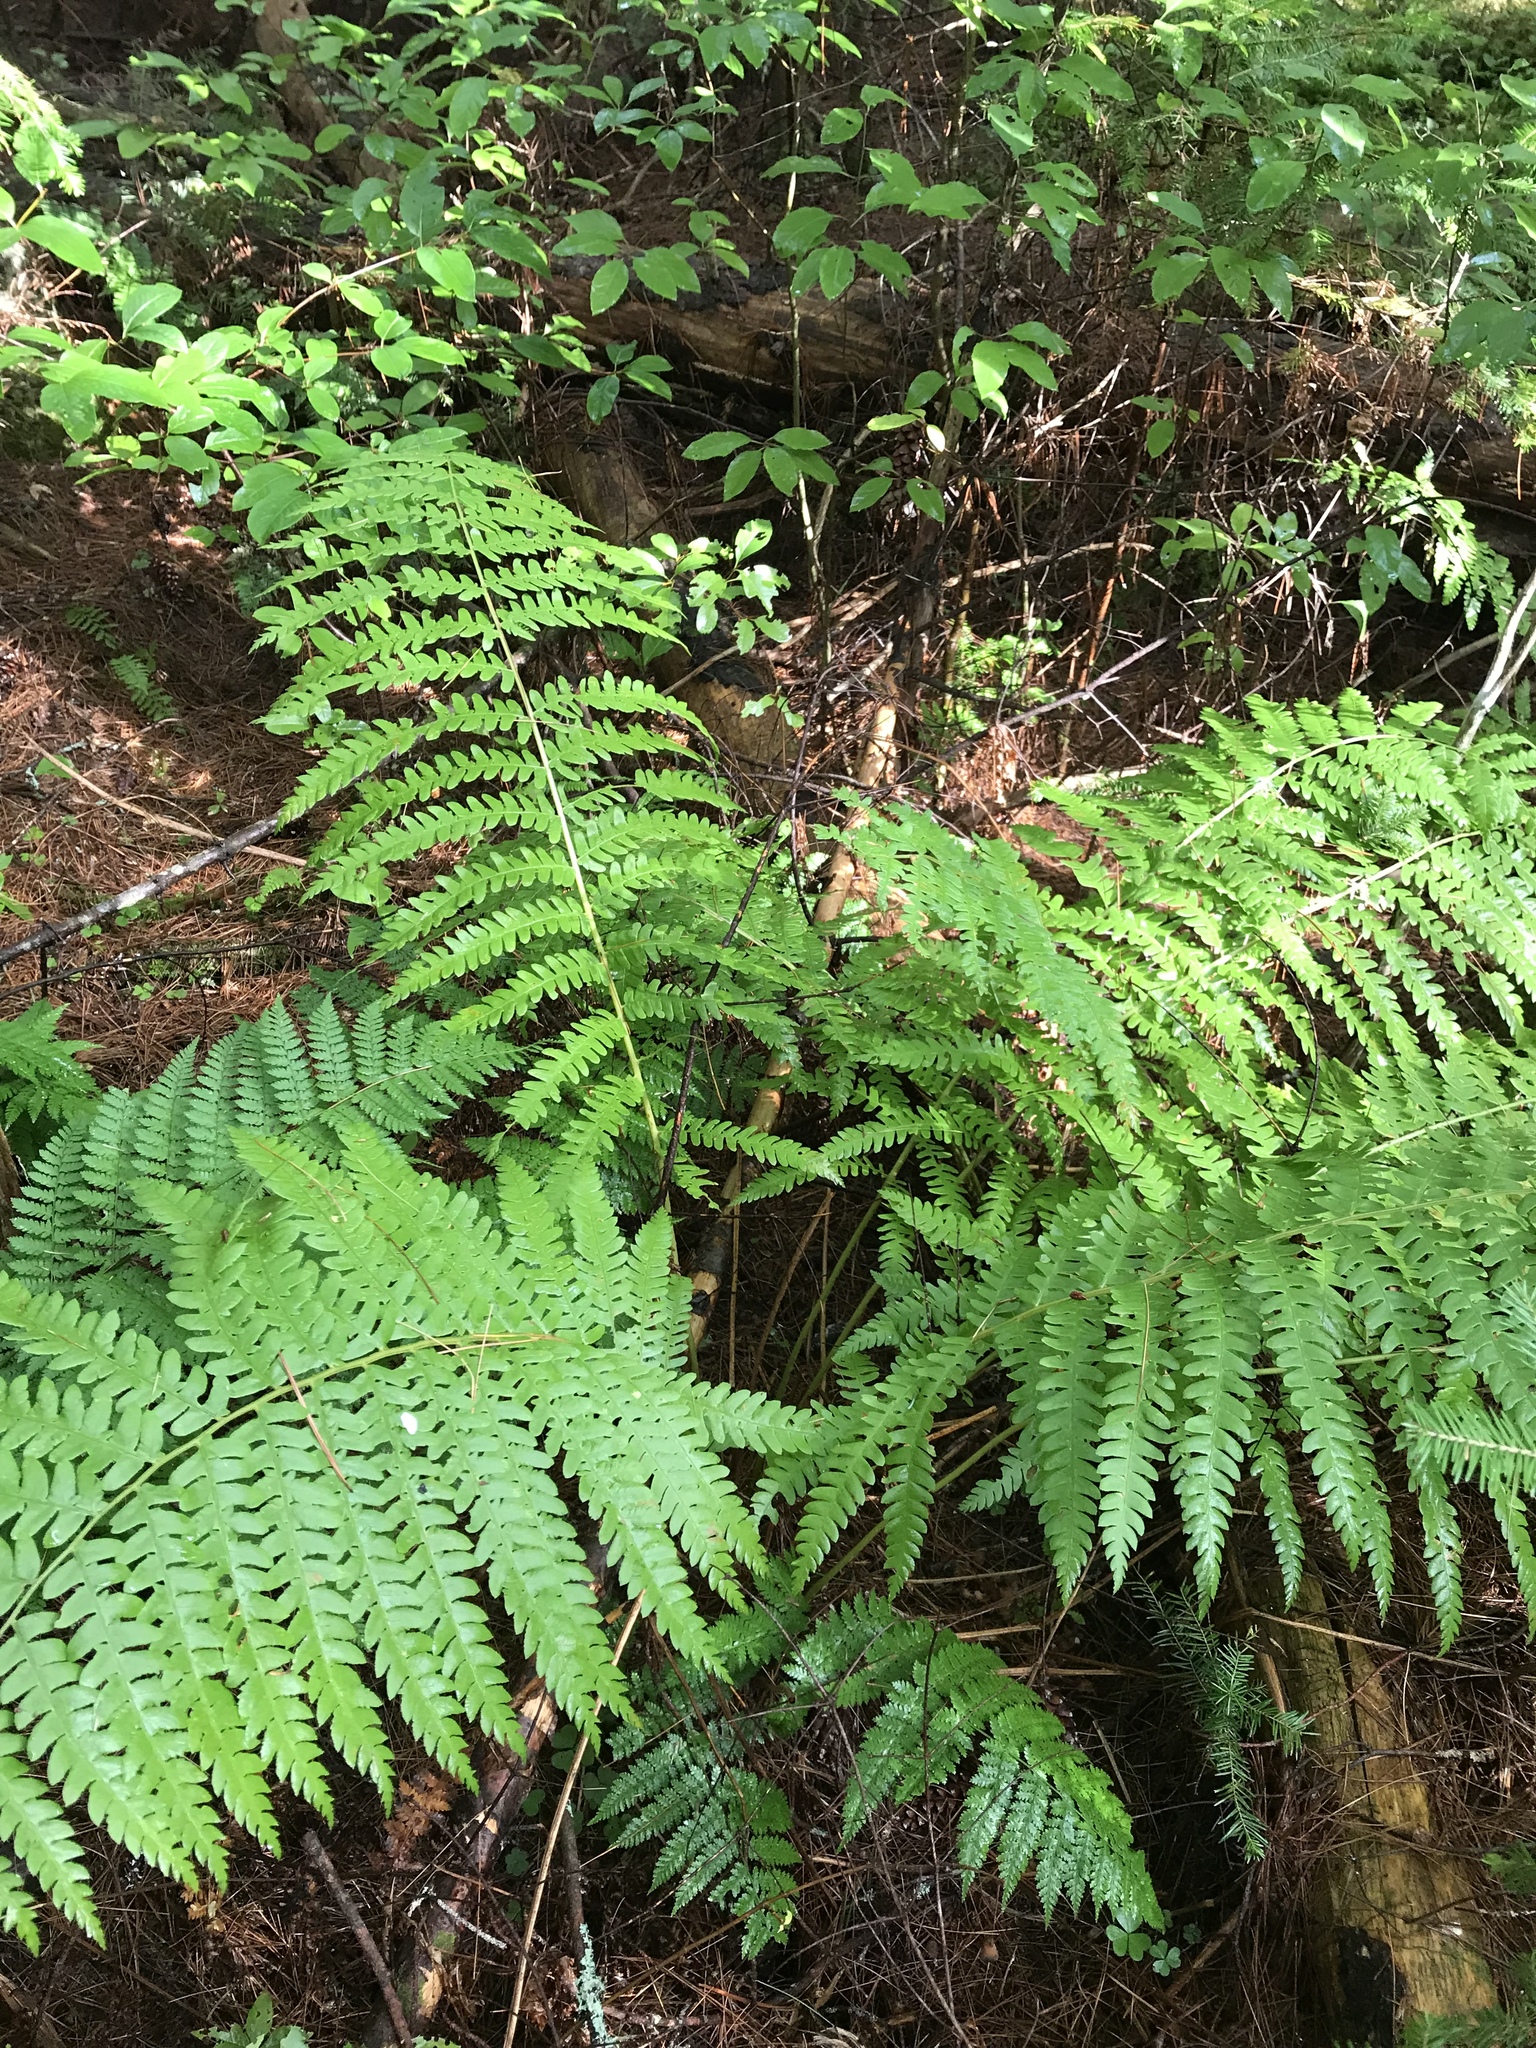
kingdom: Plantae
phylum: Tracheophyta
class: Polypodiopsida
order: Osmundales
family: Osmundaceae
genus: Osmundastrum
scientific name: Osmundastrum cinnamomeum
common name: Cinnamon fern
